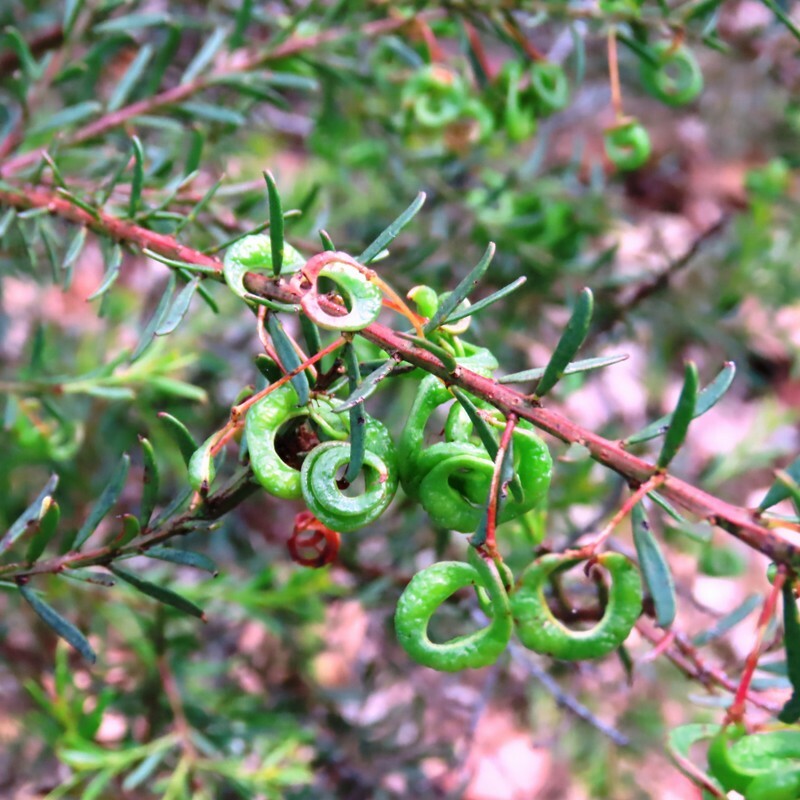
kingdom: Plantae
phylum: Tracheophyta
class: Magnoliopsida
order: Fabales
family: Fabaceae
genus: Acacia
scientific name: Acacia acinacea
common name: Gold-dust acacia
